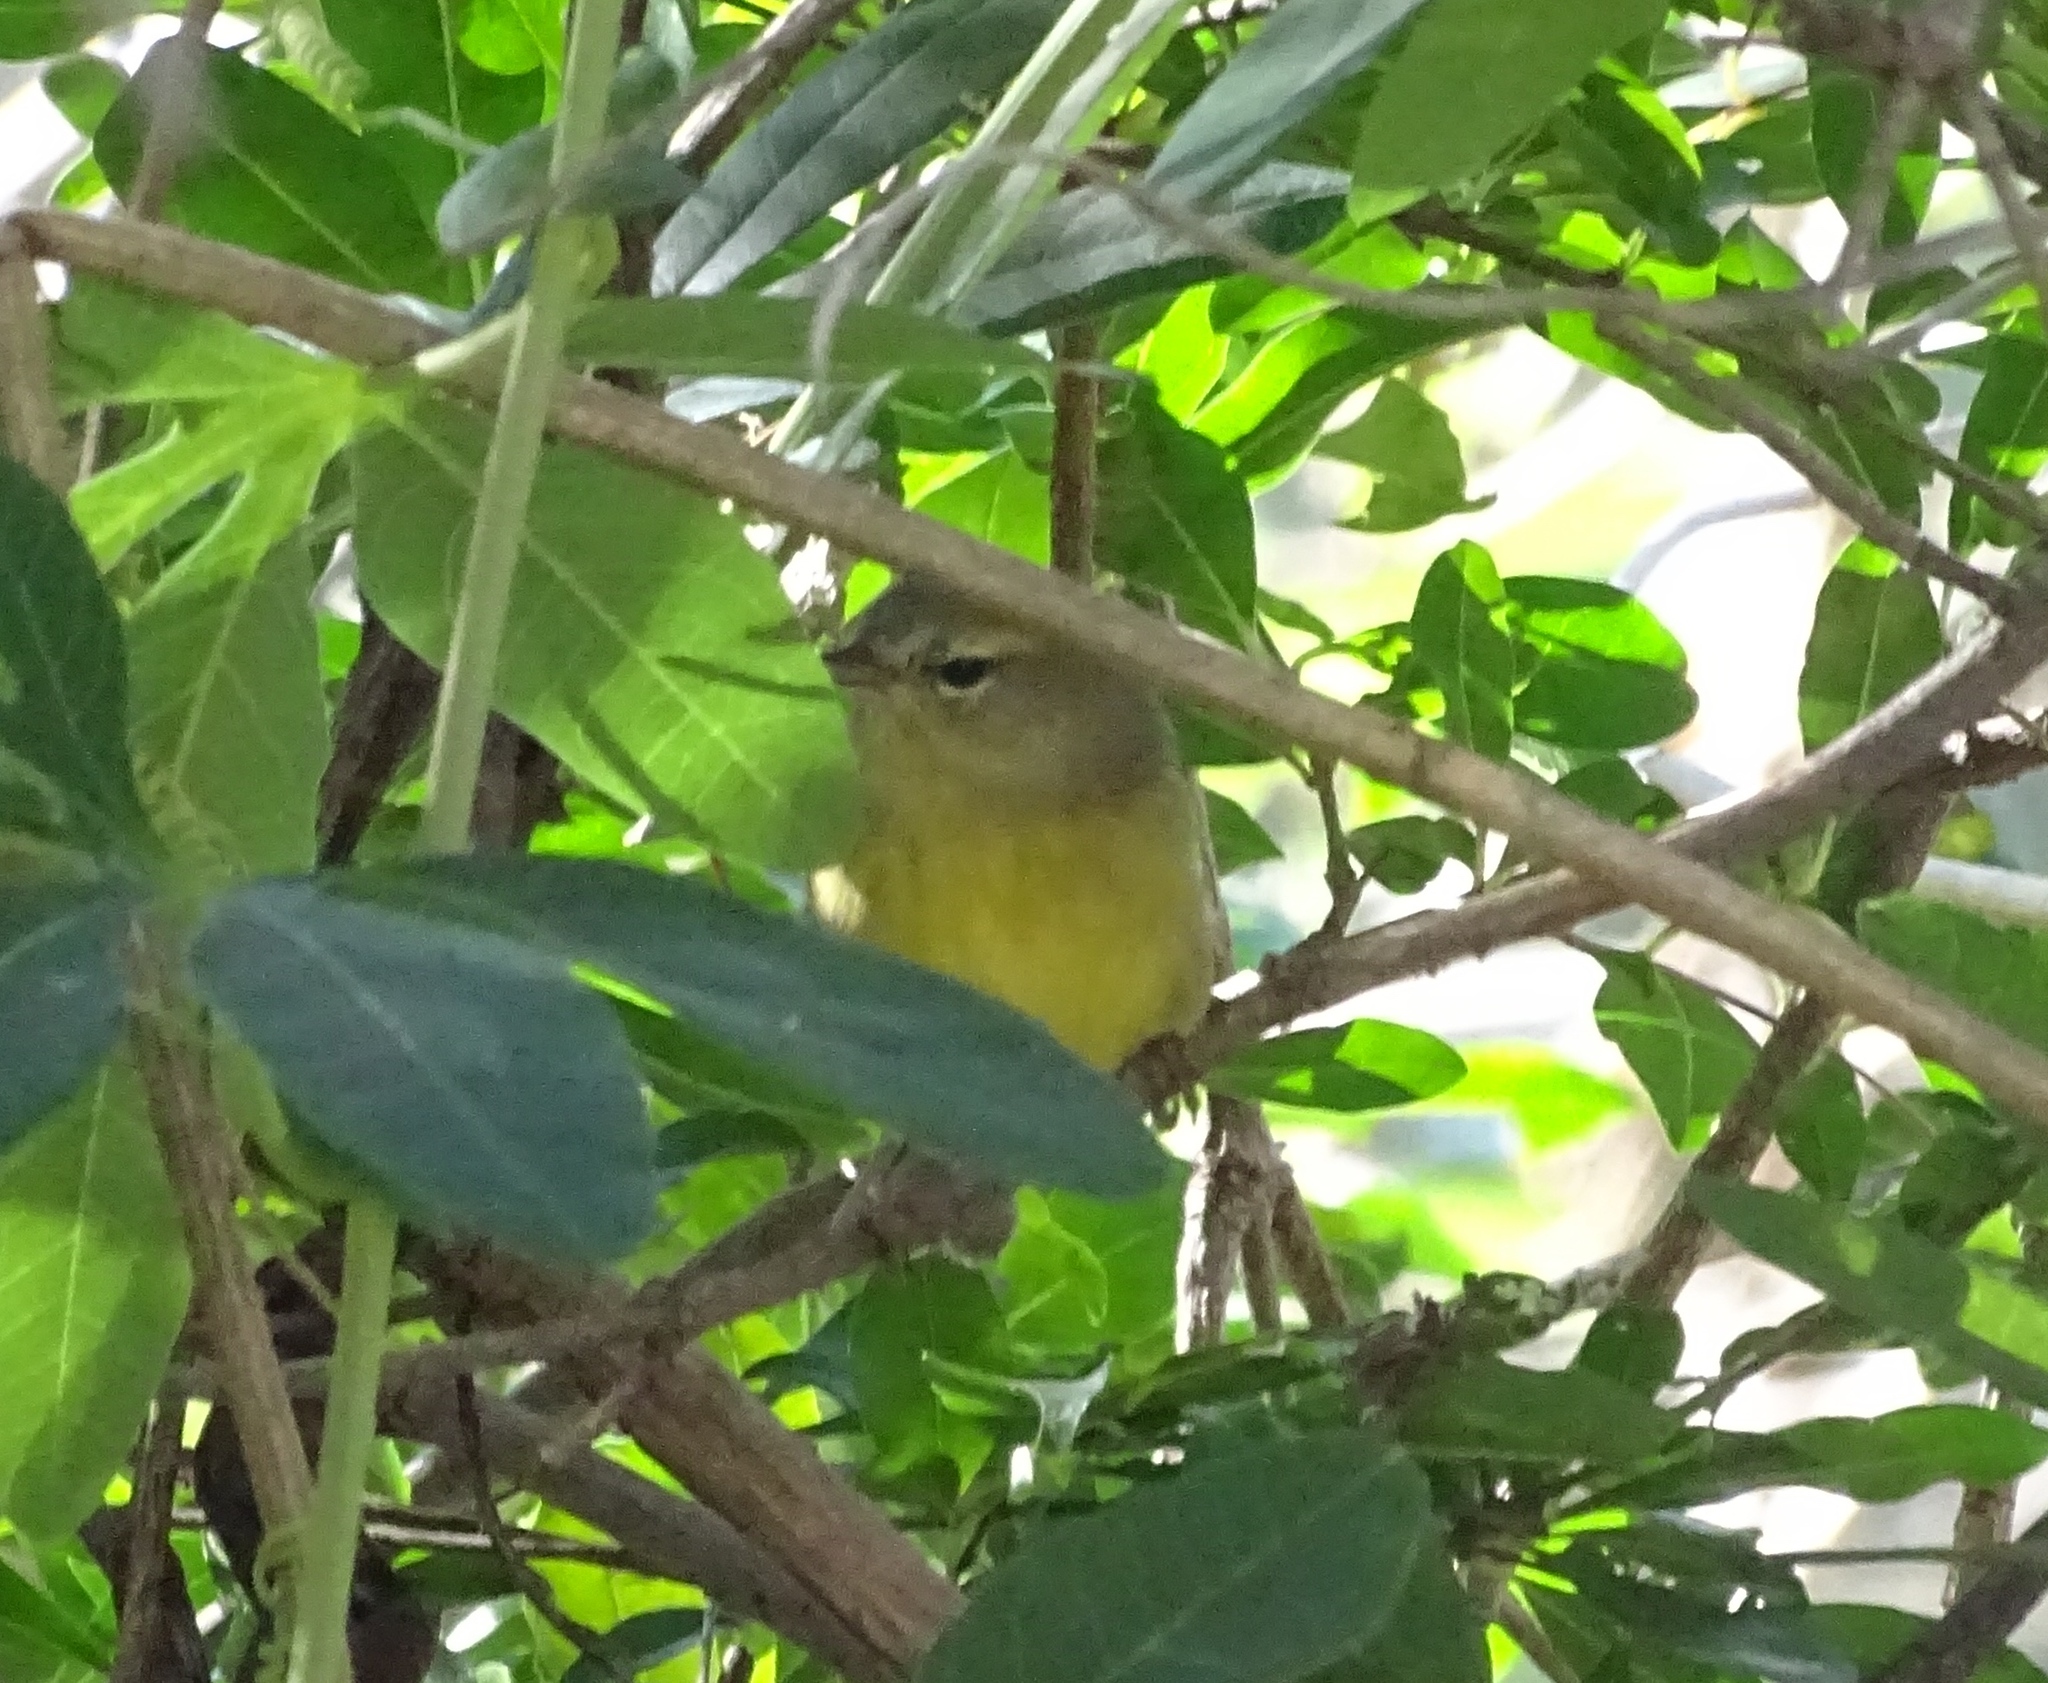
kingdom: Animalia
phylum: Chordata
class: Aves
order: Passeriformes
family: Parulidae
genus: Leiothlypis
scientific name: Leiothlypis celata
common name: Orange-crowned warbler
